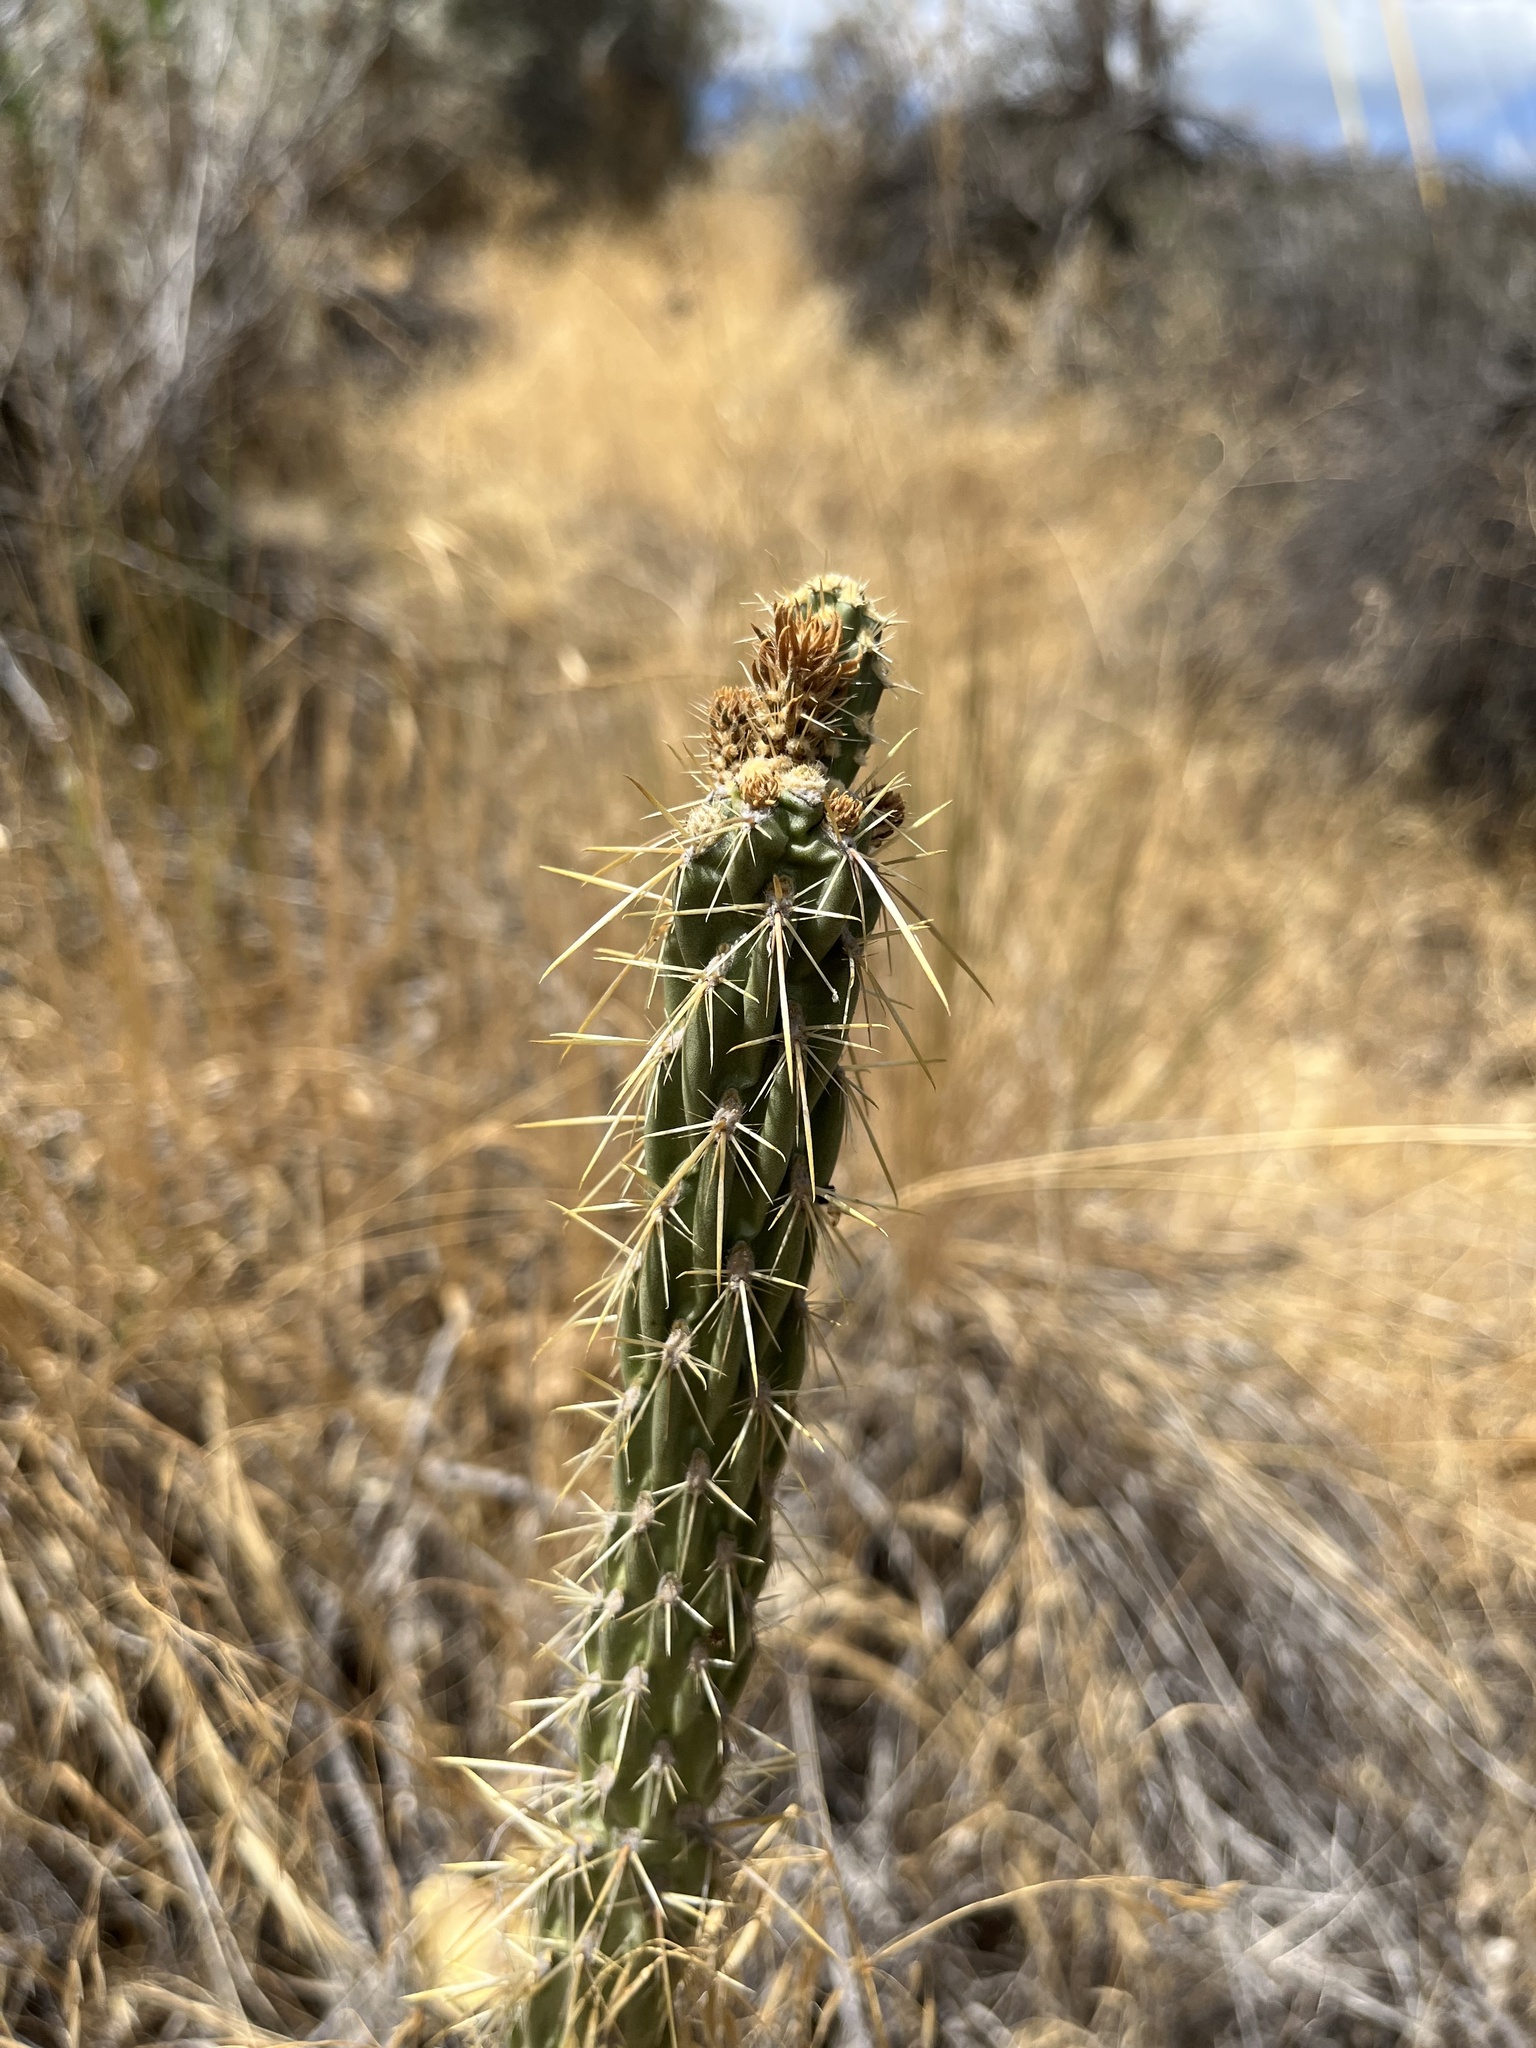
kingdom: Plantae
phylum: Tracheophyta
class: Magnoliopsida
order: Caryophyllales
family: Cactaceae
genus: Cylindropuntia
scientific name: Cylindropuntia bernardina
